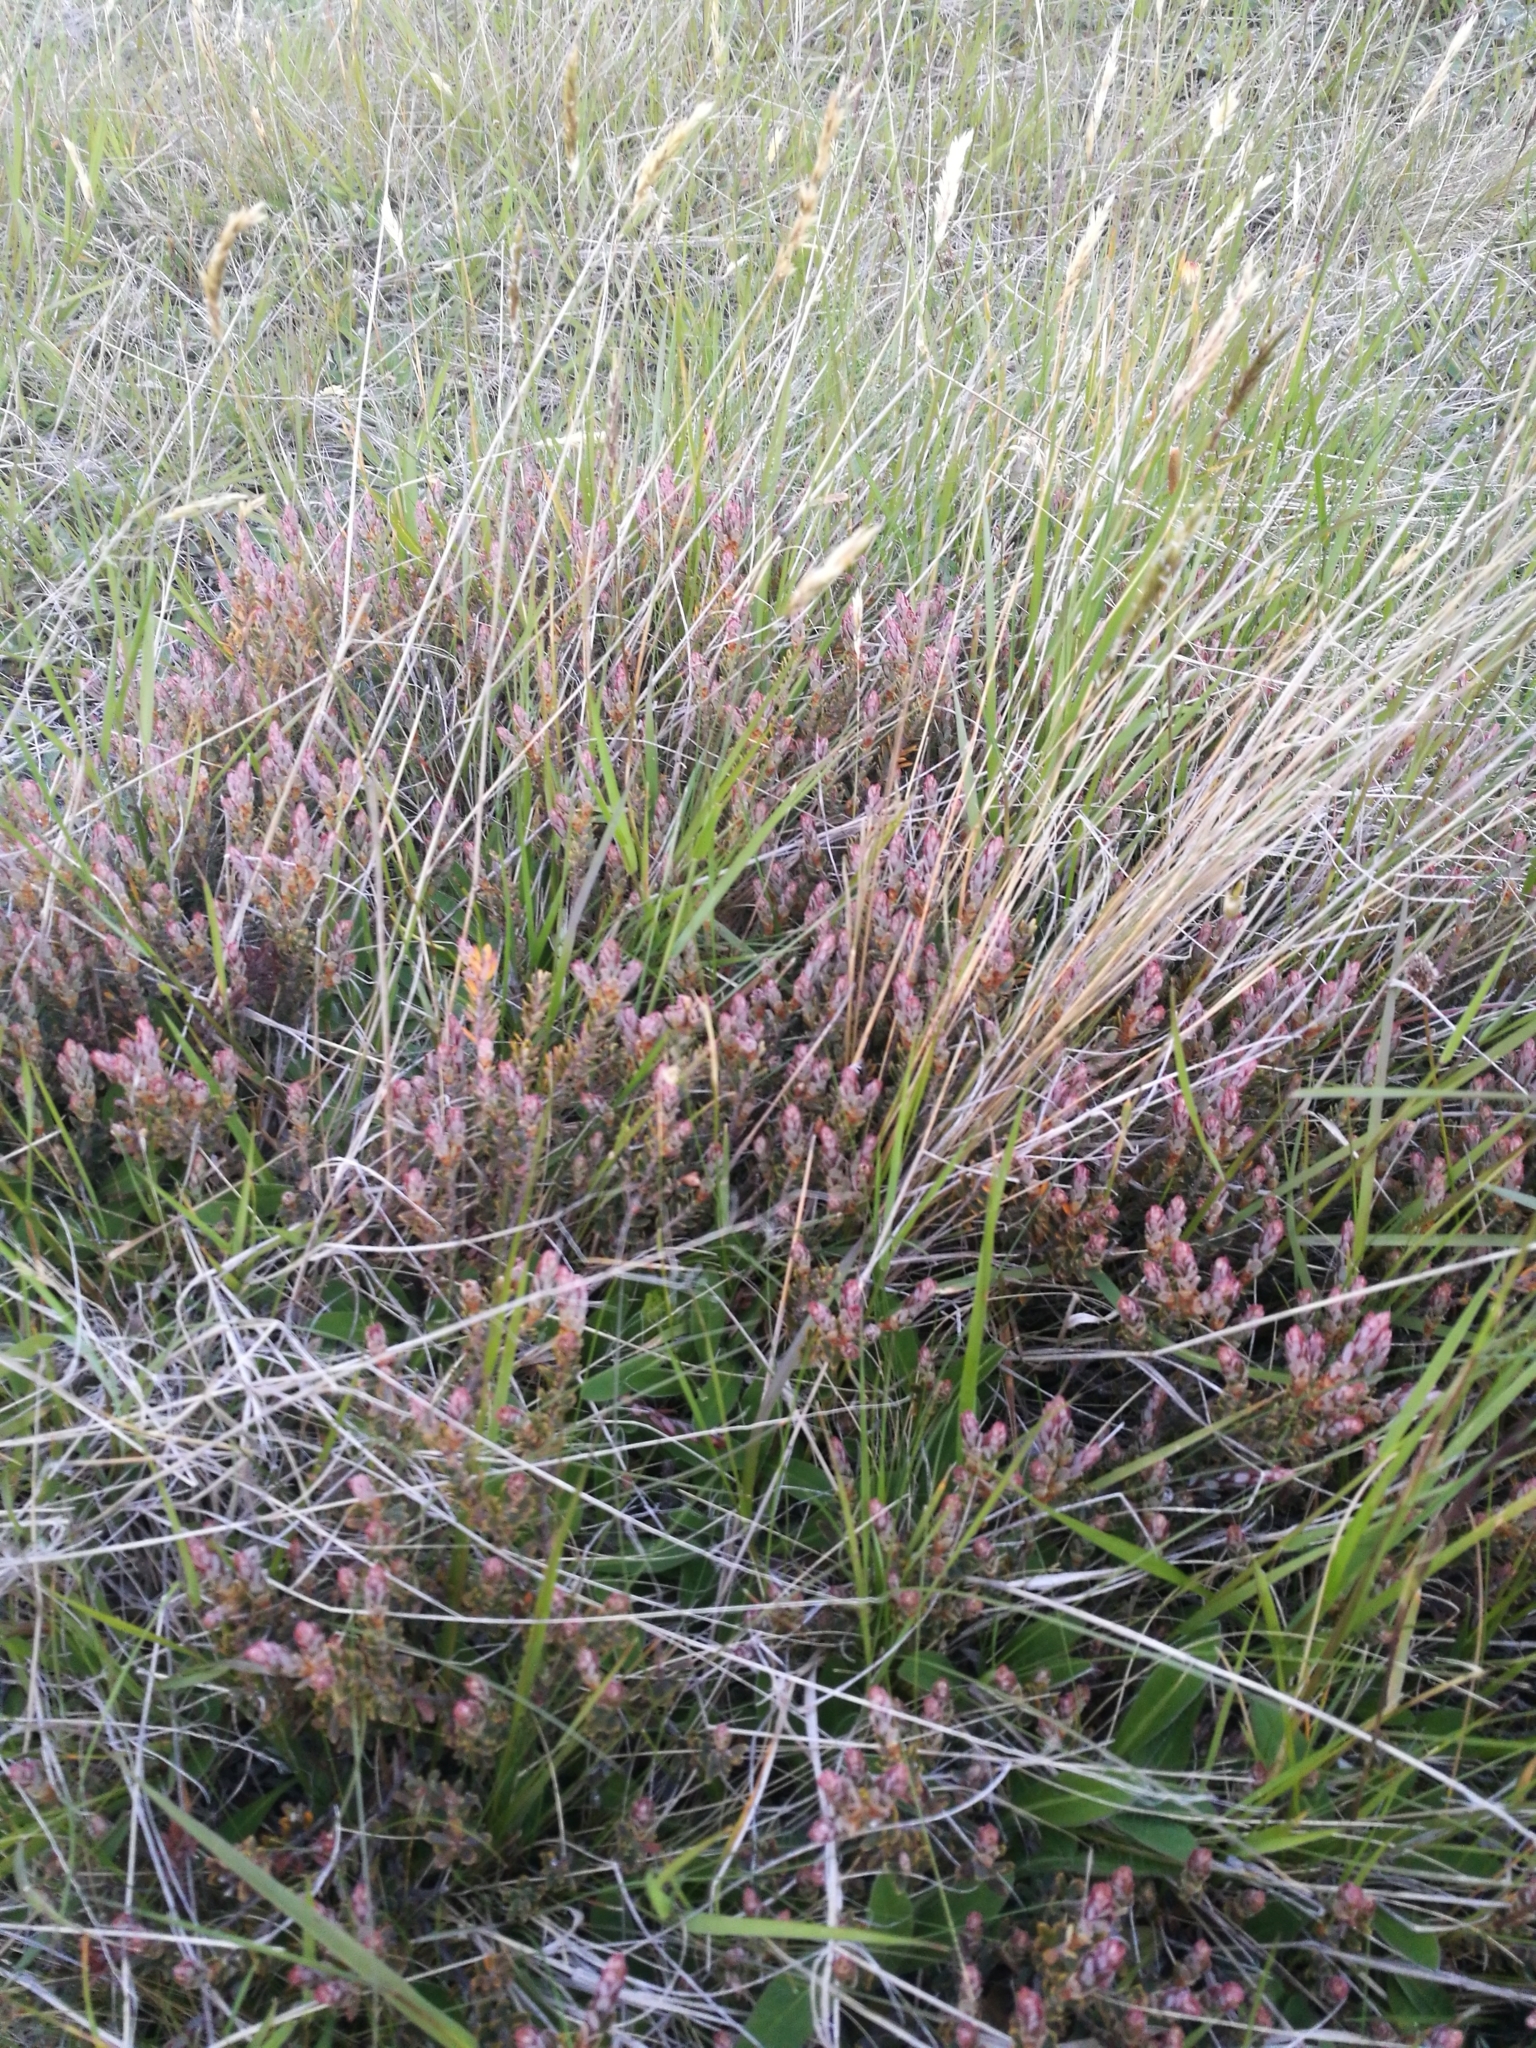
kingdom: Plantae
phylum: Tracheophyta
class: Magnoliopsida
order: Ericales
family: Ericaceae
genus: Acrothamnus
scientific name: Acrothamnus colensoi
